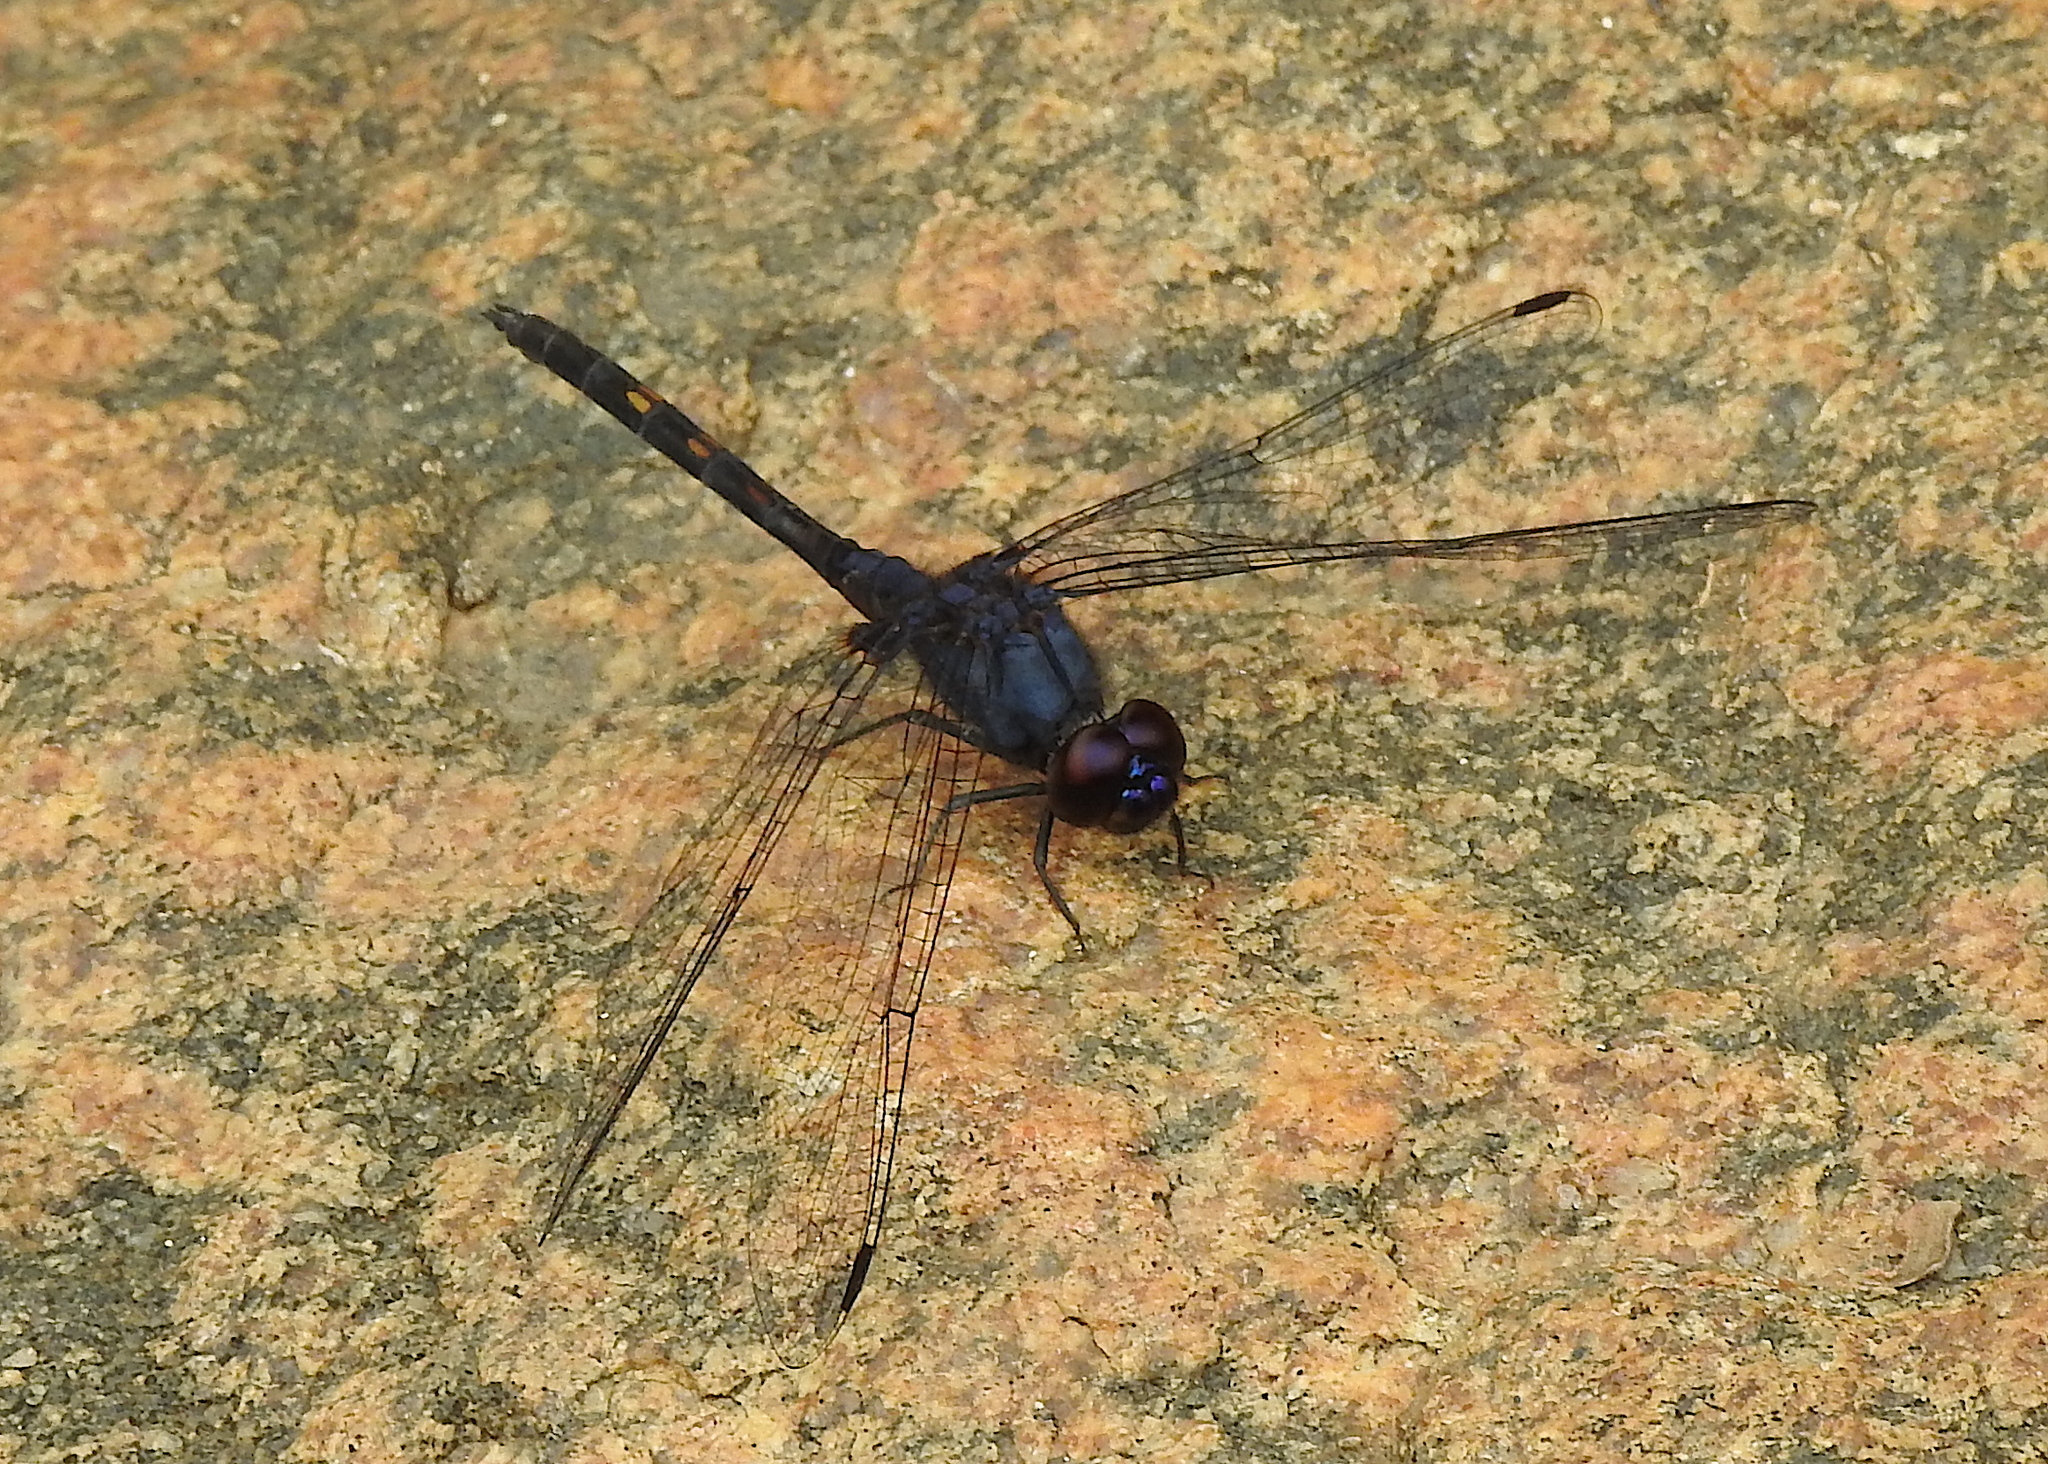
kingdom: Animalia
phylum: Arthropoda
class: Insecta
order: Odonata
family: Libellulidae
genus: Trithemis
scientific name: Trithemis festiva
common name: Indigo dropwing
